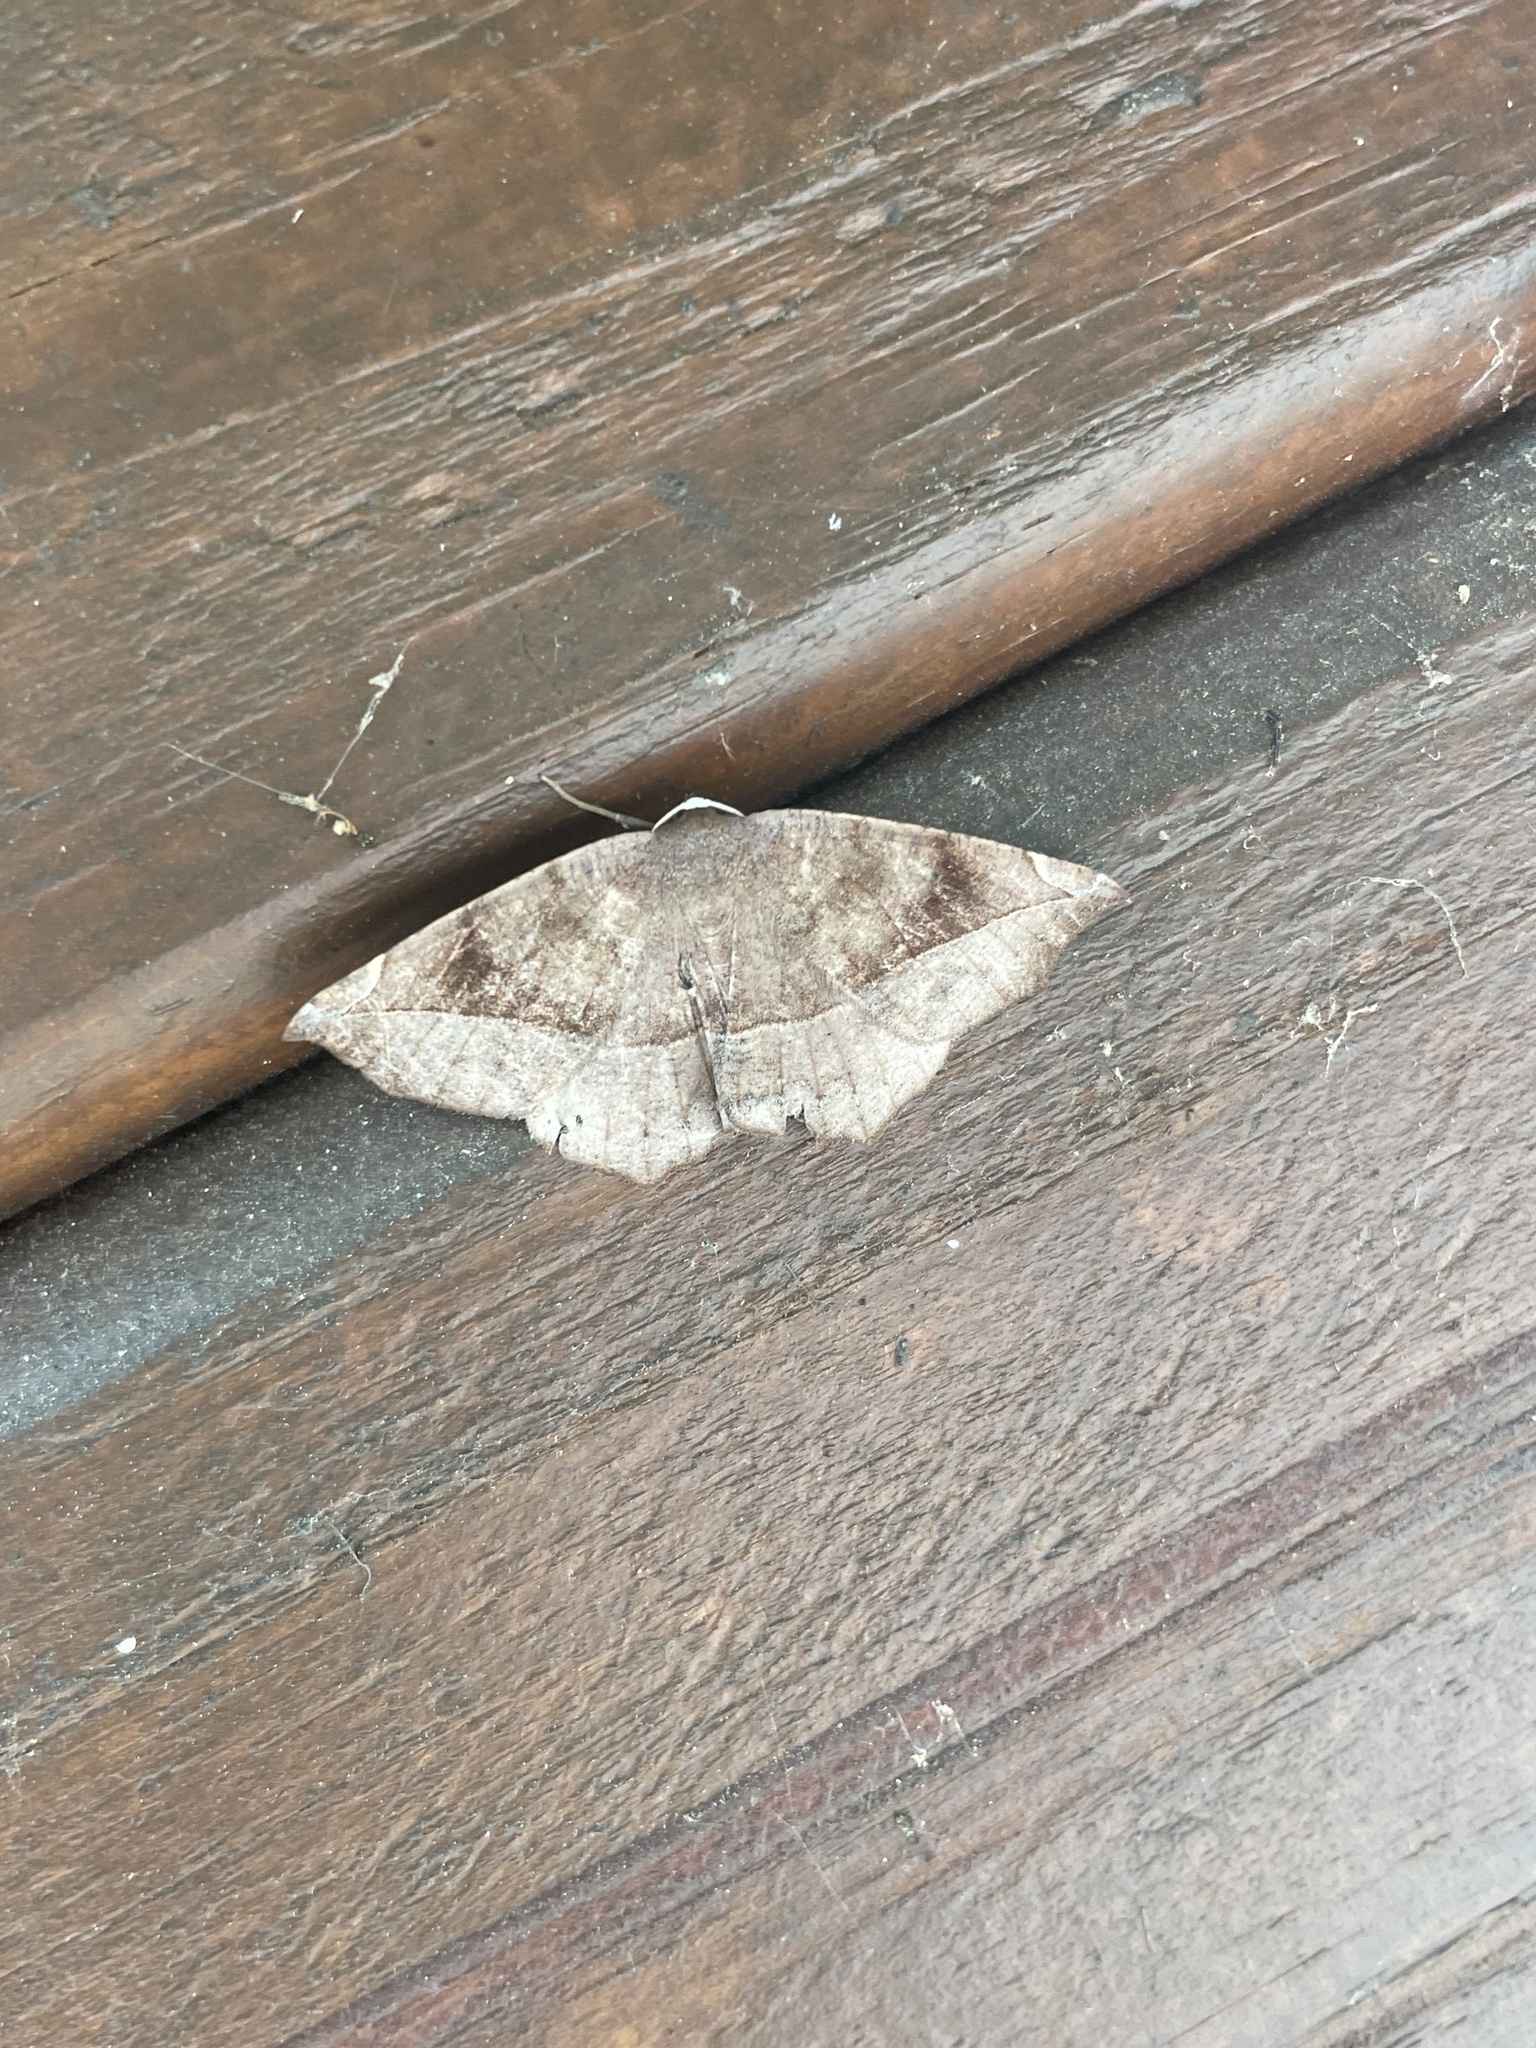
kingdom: Animalia
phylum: Arthropoda
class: Insecta
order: Lepidoptera
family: Geometridae
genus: Eutrapela
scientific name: Eutrapela clemataria
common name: Curved-toothed geometer
